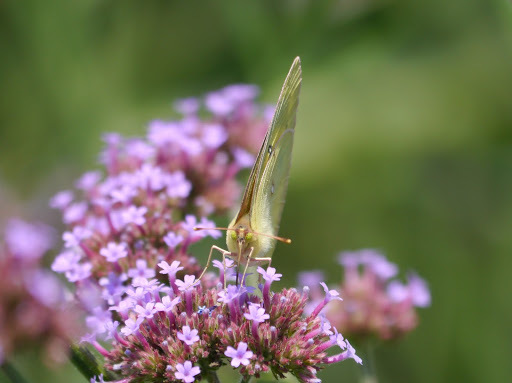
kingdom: Animalia
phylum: Arthropoda
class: Insecta
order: Lepidoptera
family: Pieridae
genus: Phoebis
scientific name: Phoebis sennae
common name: Cloudless sulphur
